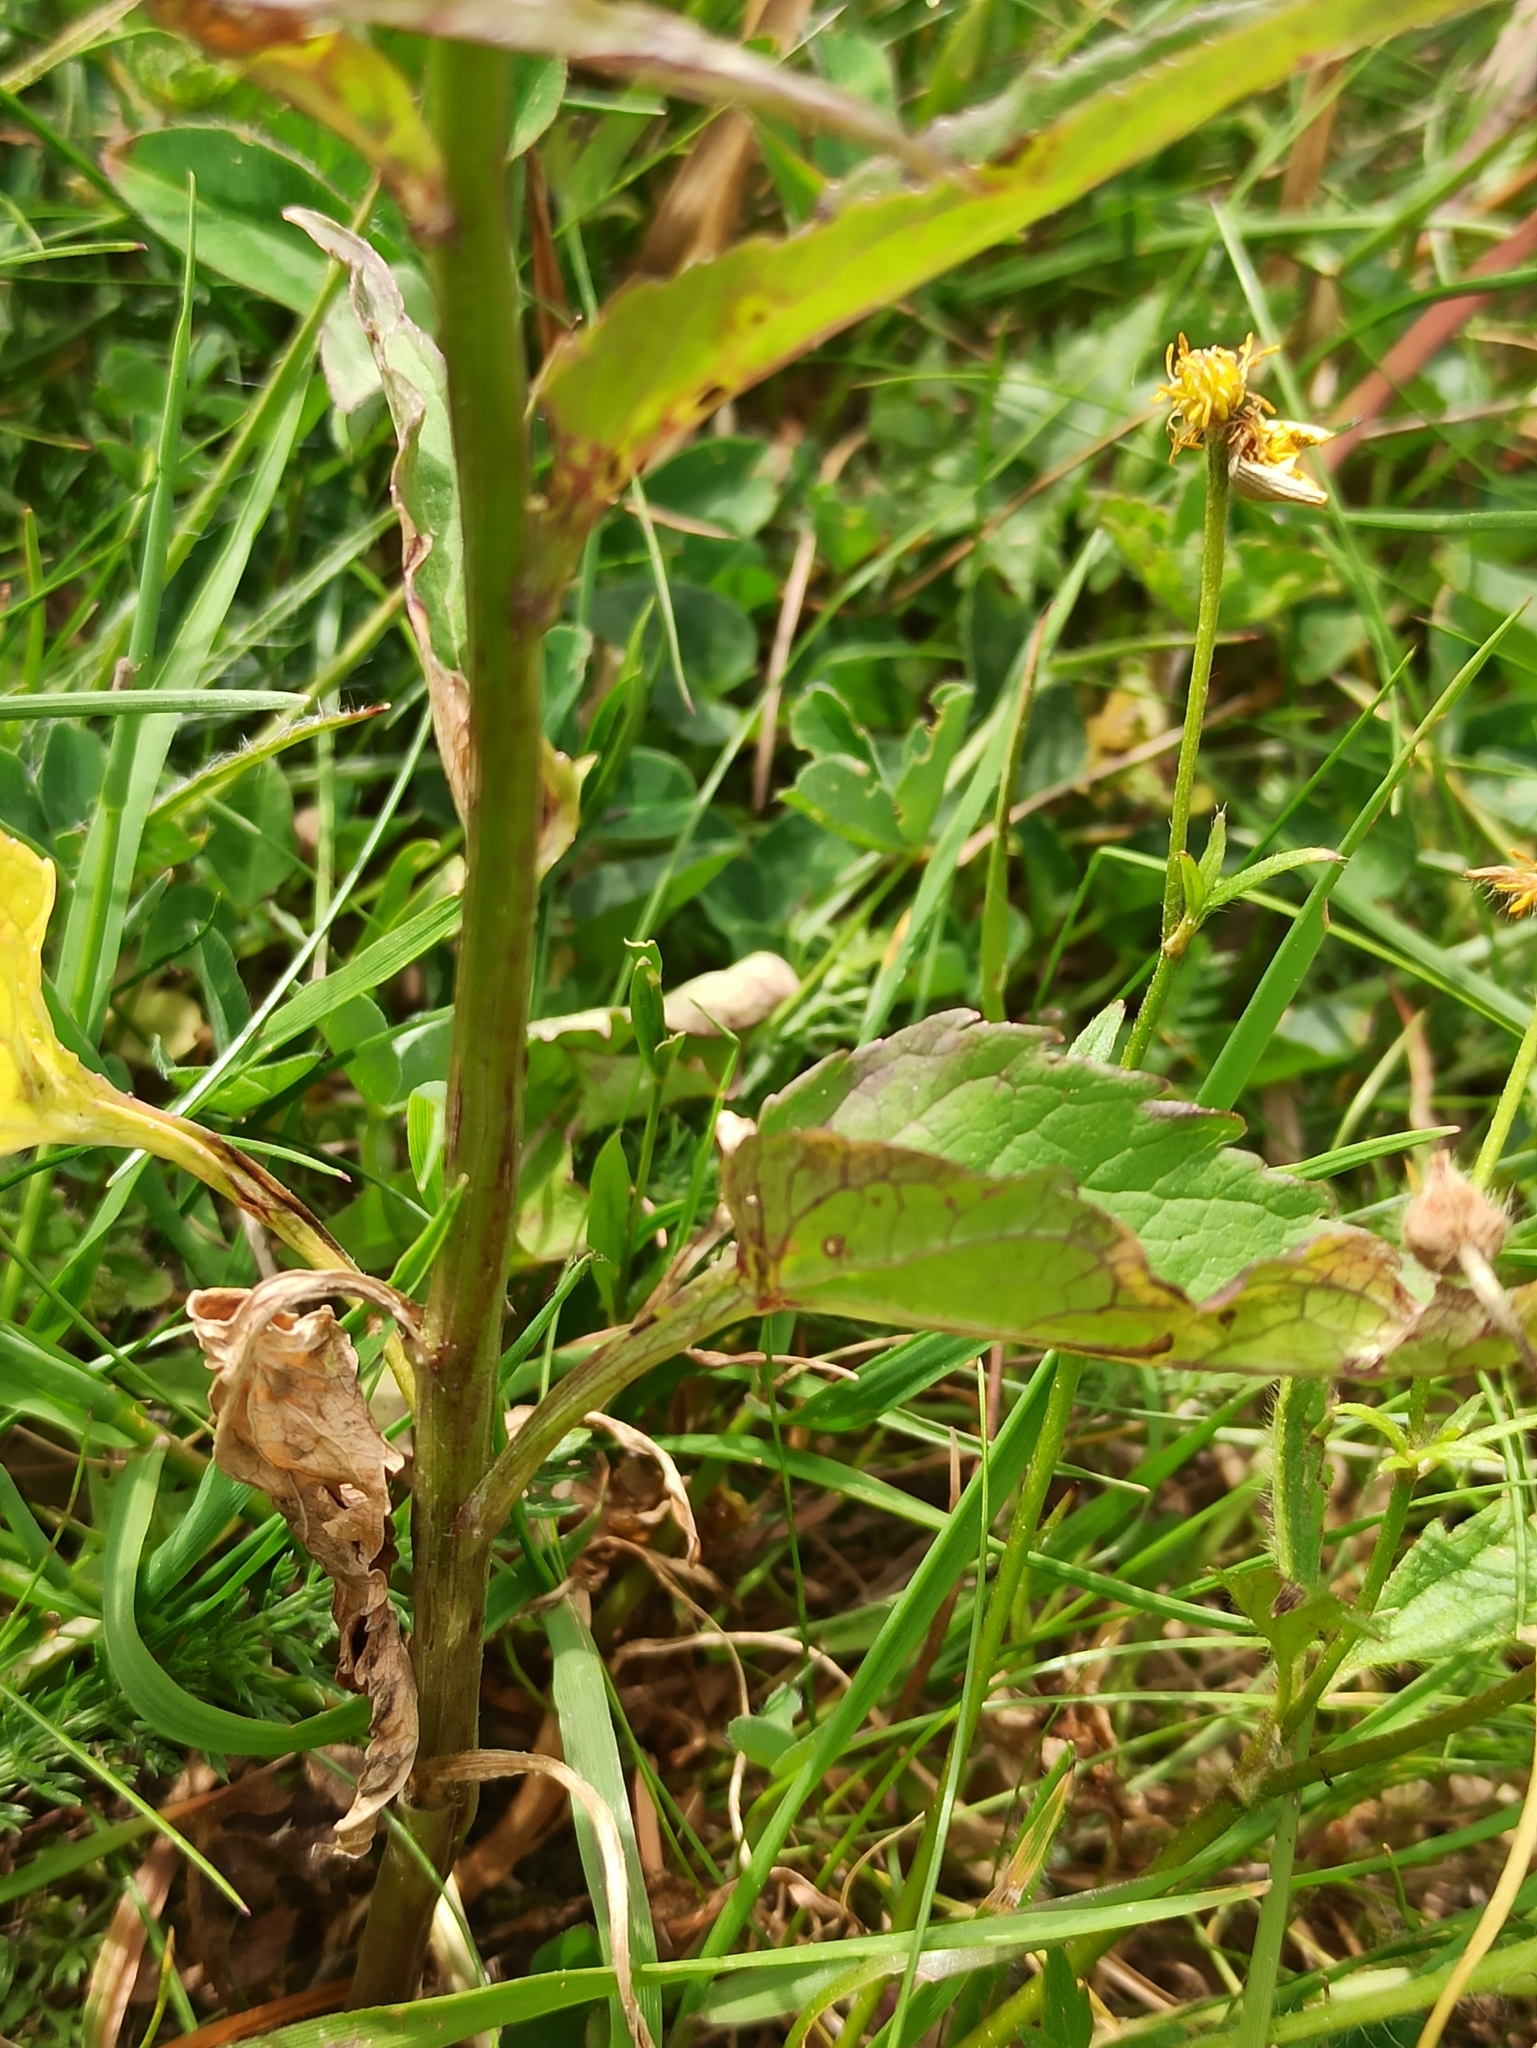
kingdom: Plantae
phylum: Tracheophyta
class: Magnoliopsida
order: Asterales
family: Campanulaceae
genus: Phyteuma
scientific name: Phyteuma spicatum
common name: Spiked rampion
